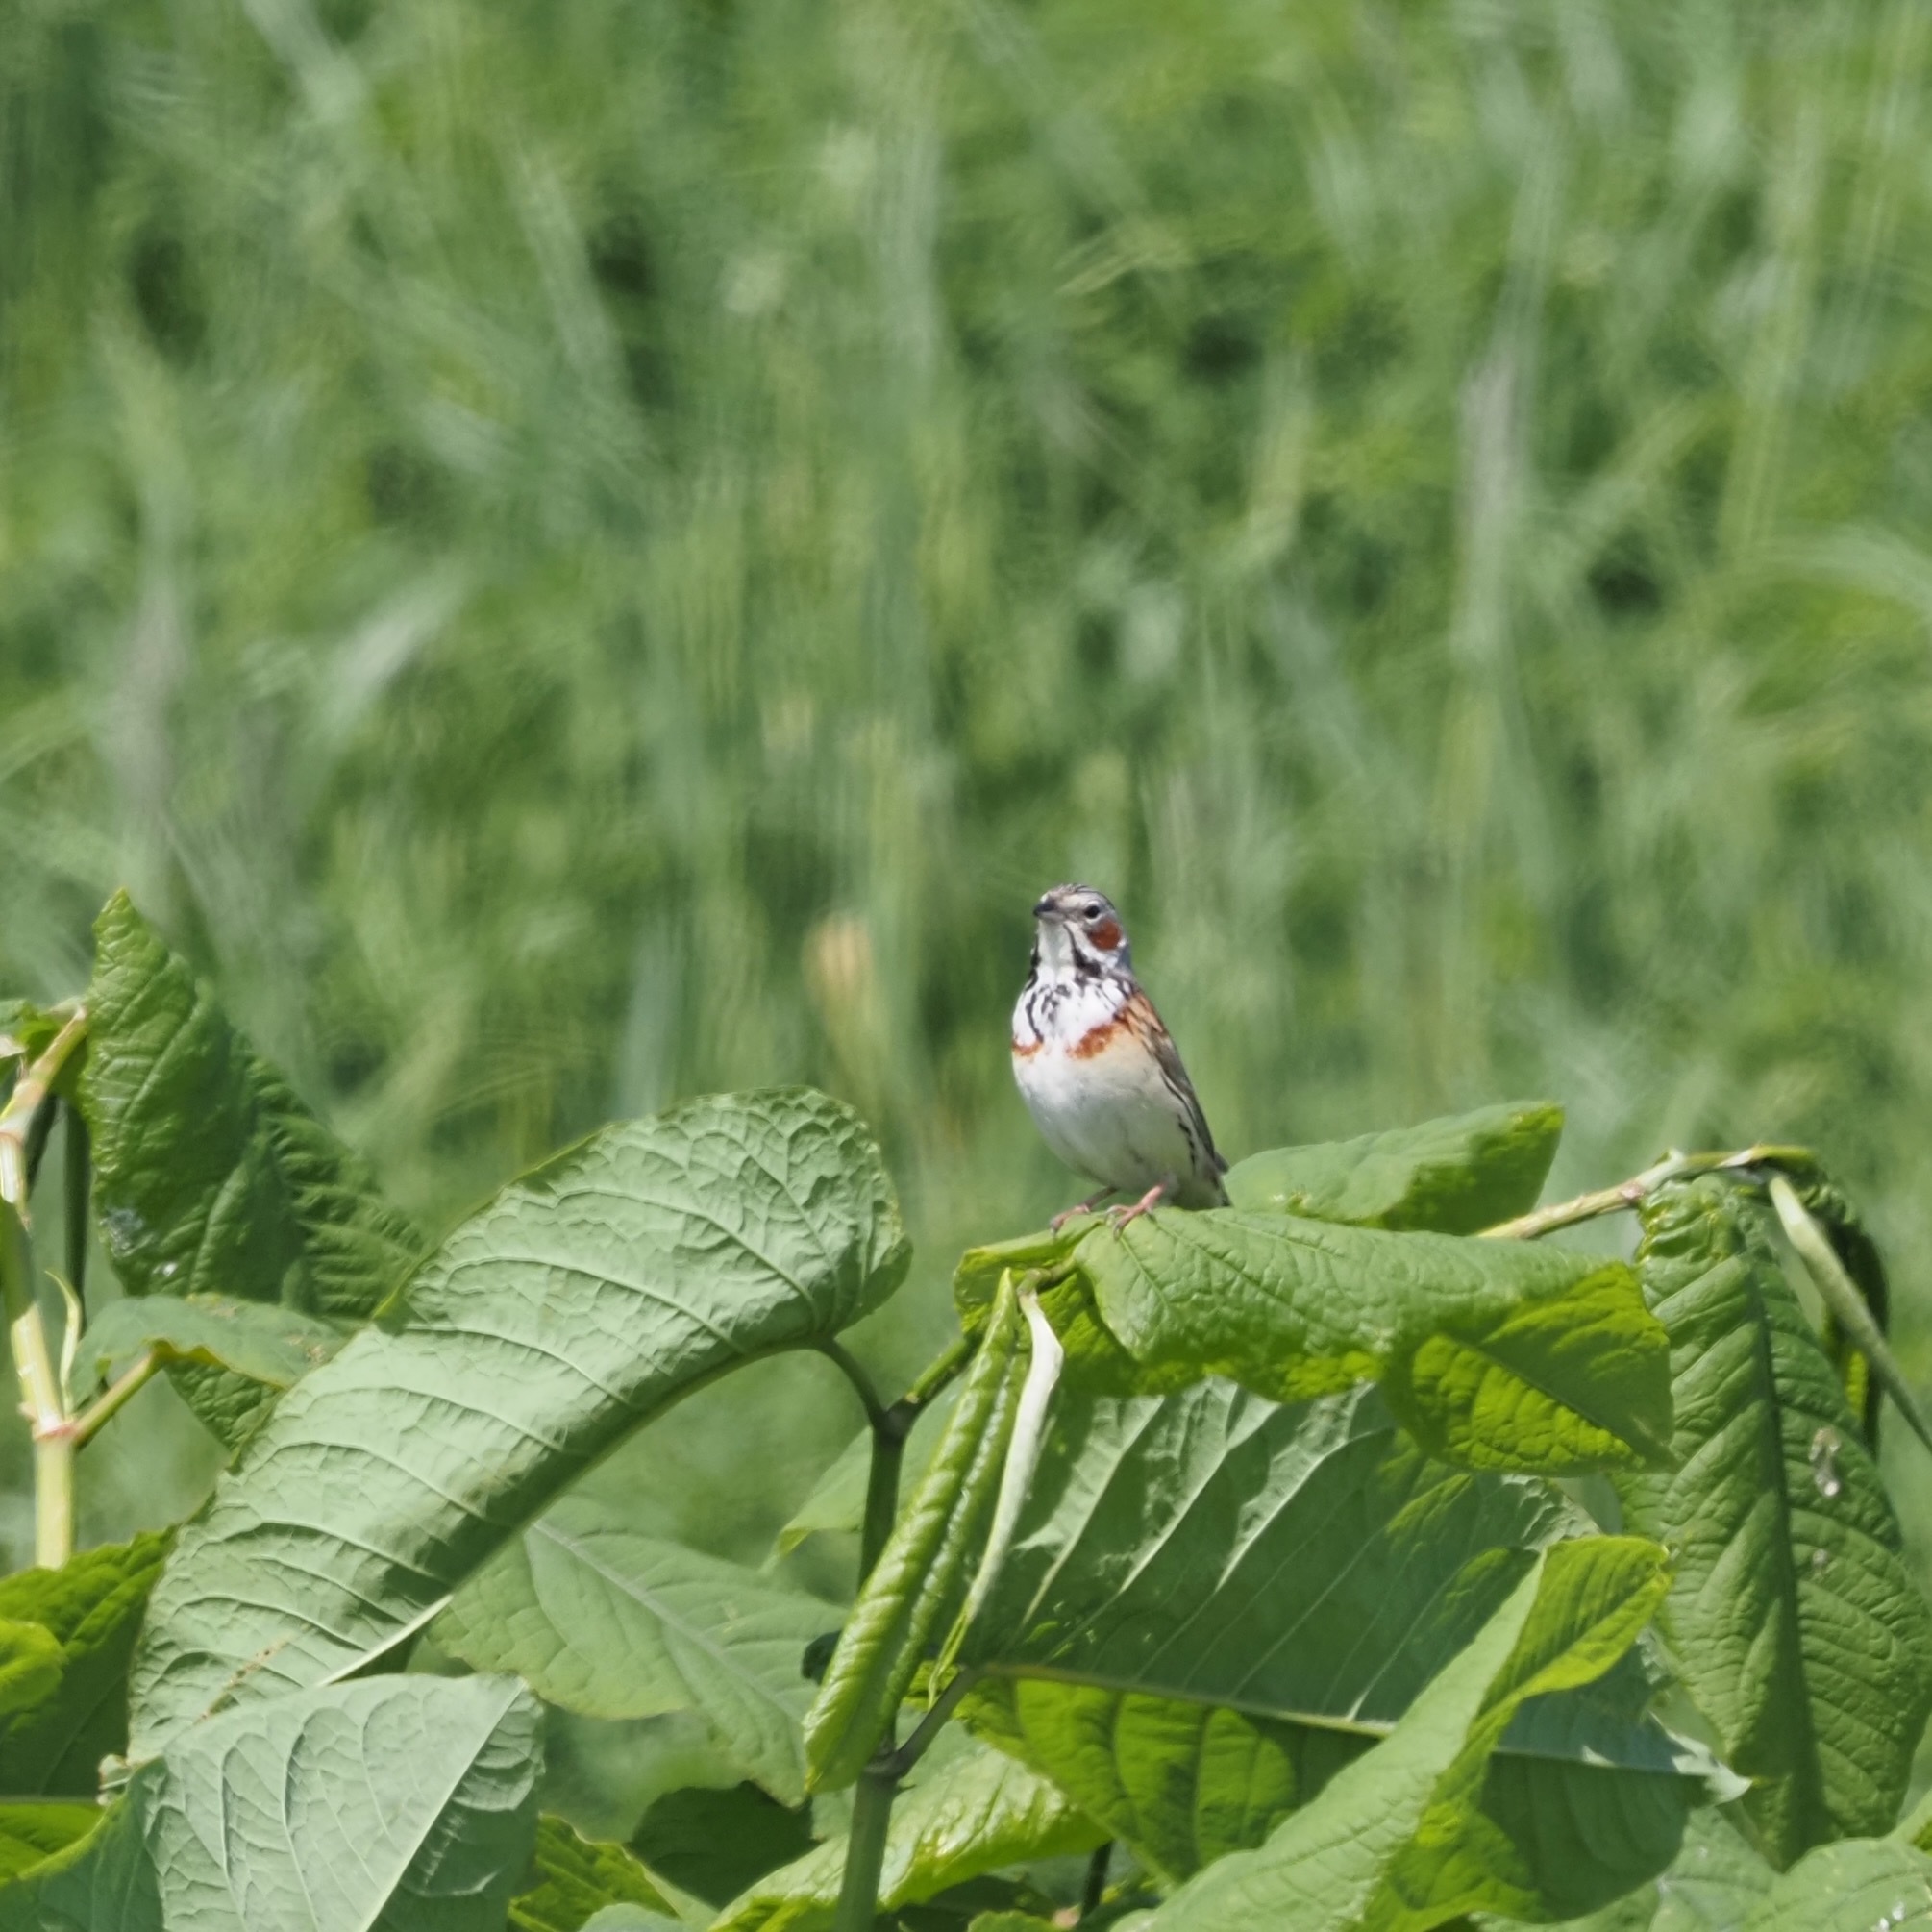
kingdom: Animalia
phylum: Chordata
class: Aves
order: Passeriformes
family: Emberizidae
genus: Emberiza
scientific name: Emberiza fucata
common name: Chestnut-eared bunting
